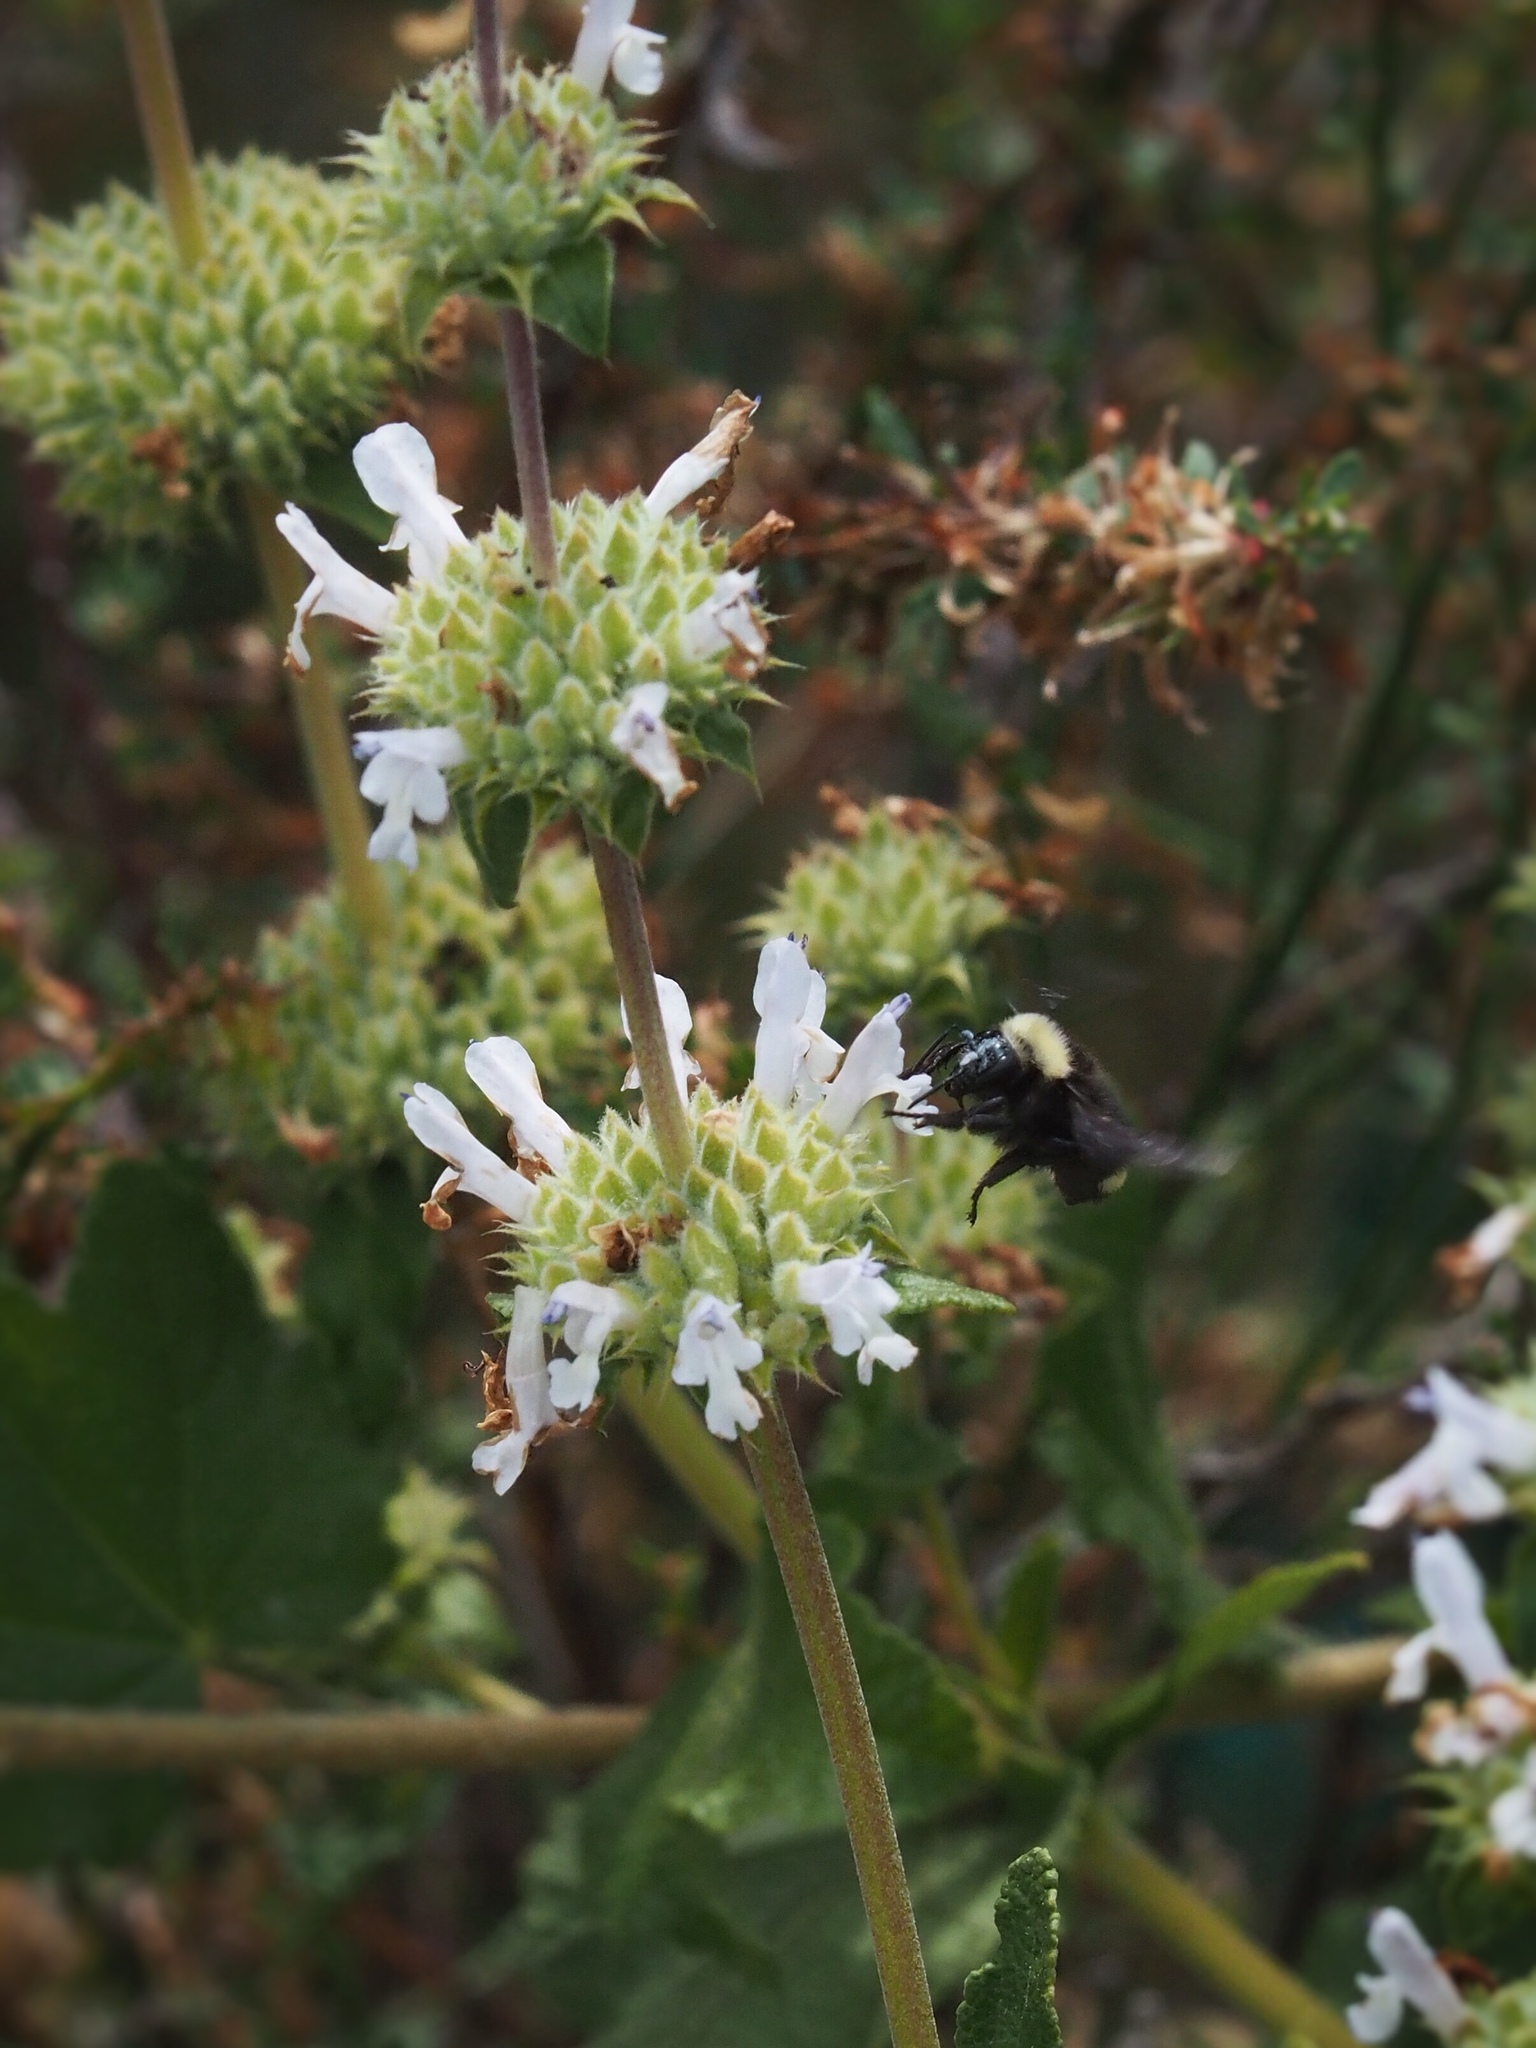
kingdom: Animalia
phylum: Arthropoda
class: Insecta
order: Hymenoptera
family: Apidae
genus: Bombus
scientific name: Bombus californicus
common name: California bumble bee
